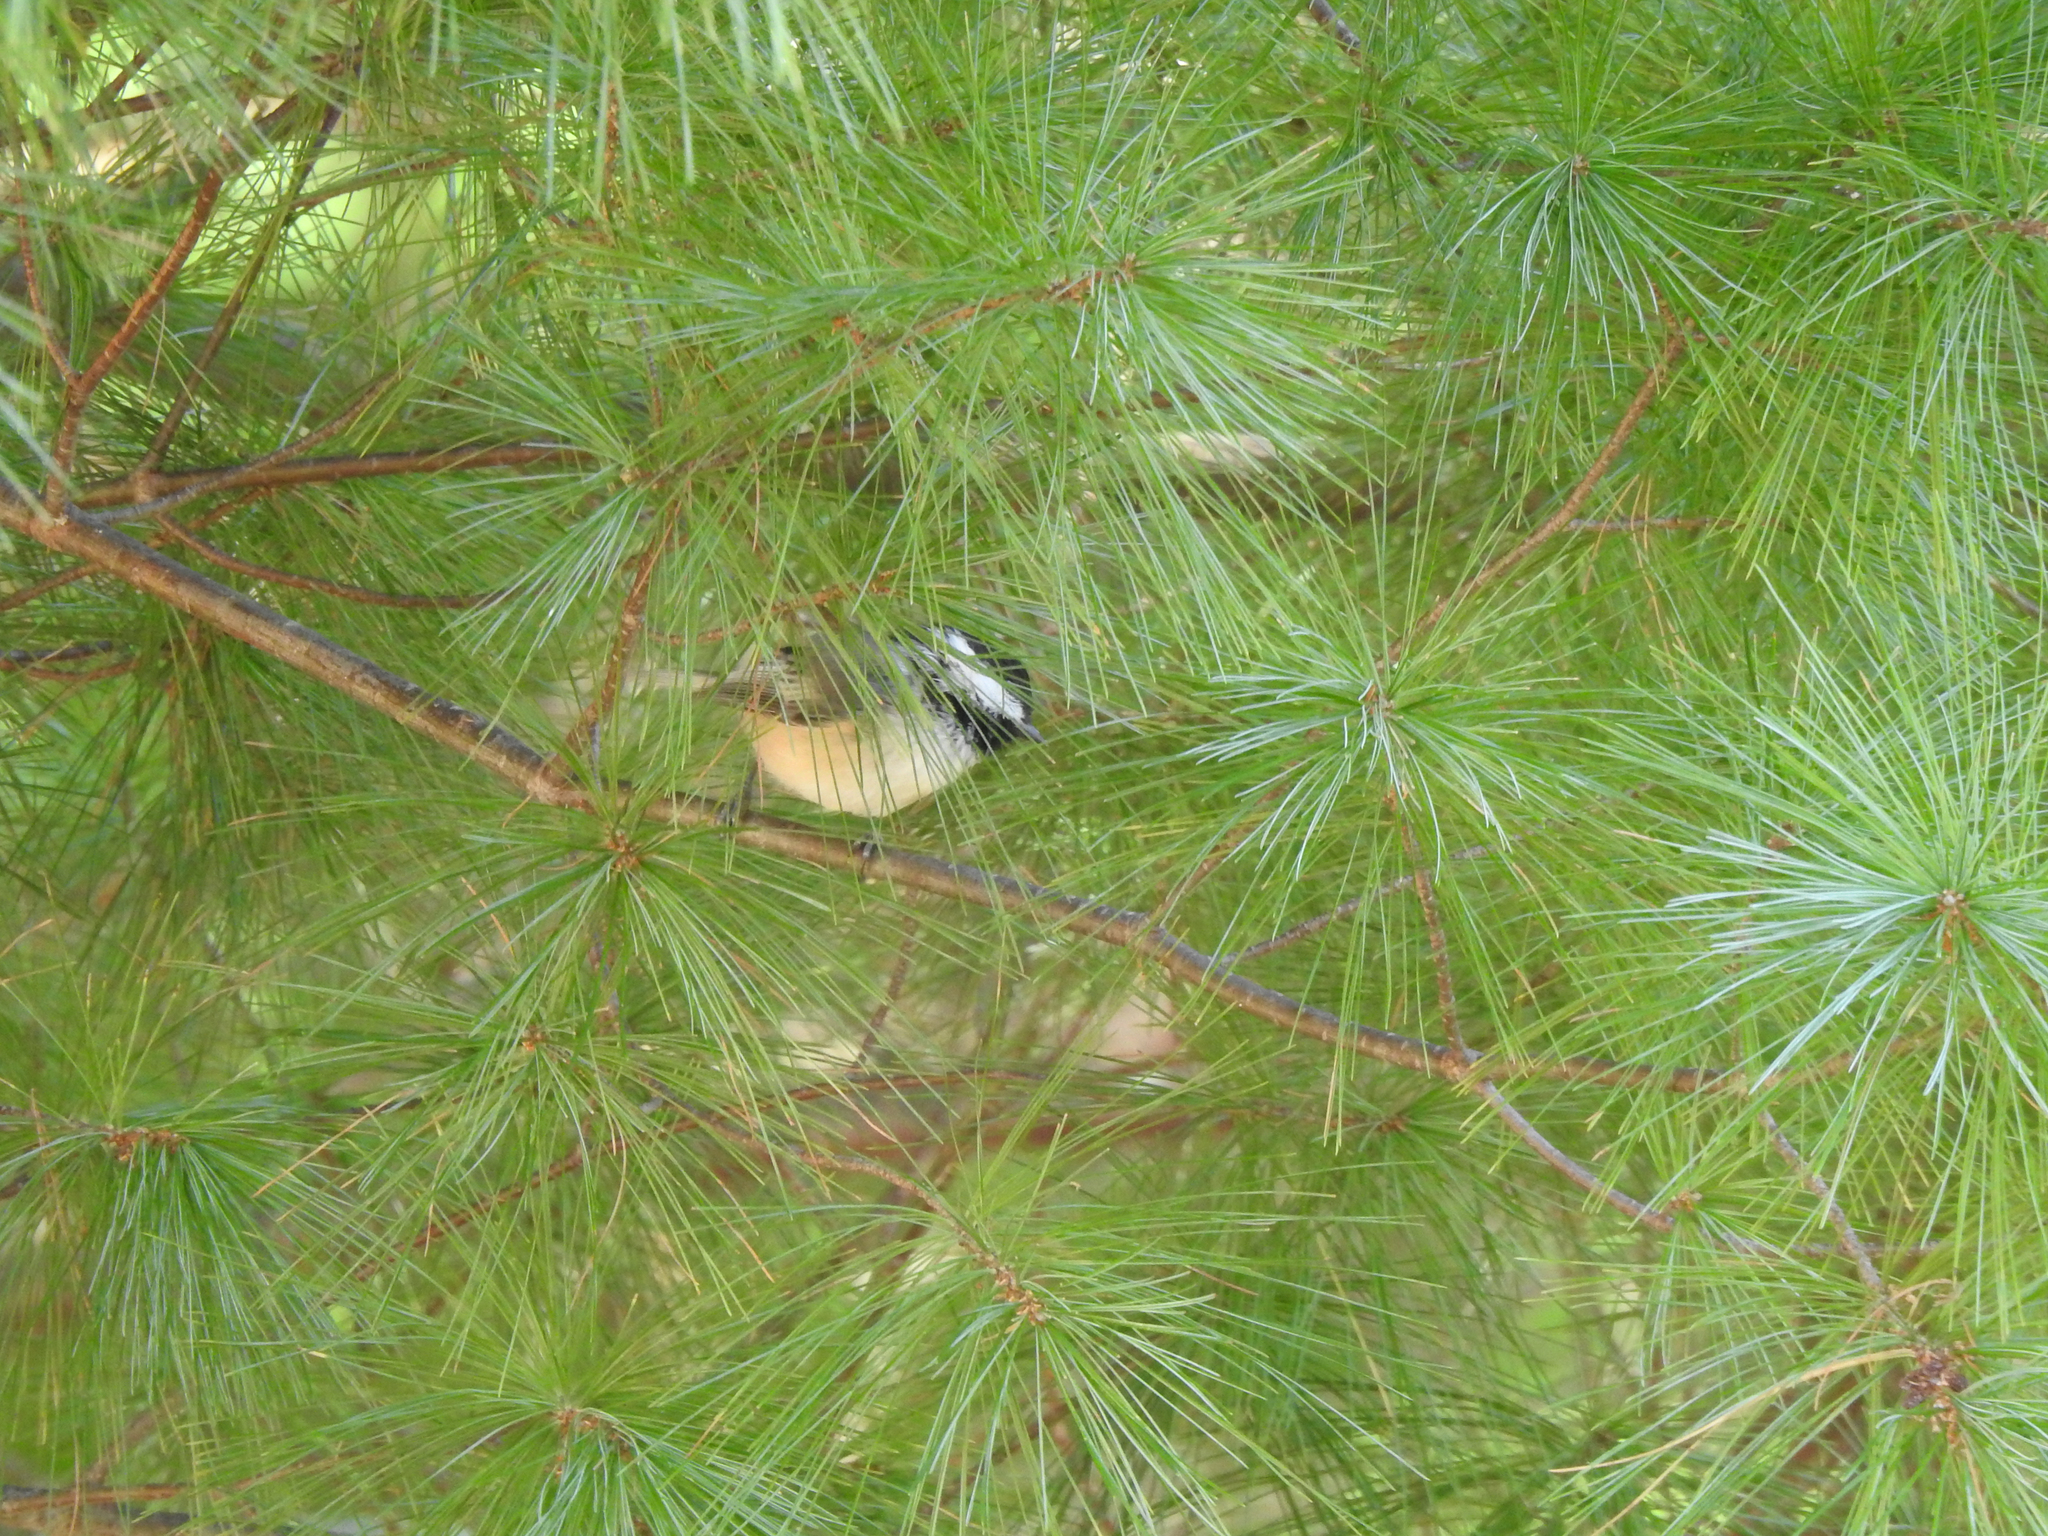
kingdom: Animalia
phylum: Chordata
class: Aves
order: Passeriformes
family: Paridae
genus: Poecile
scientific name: Poecile atricapillus
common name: Black-capped chickadee
